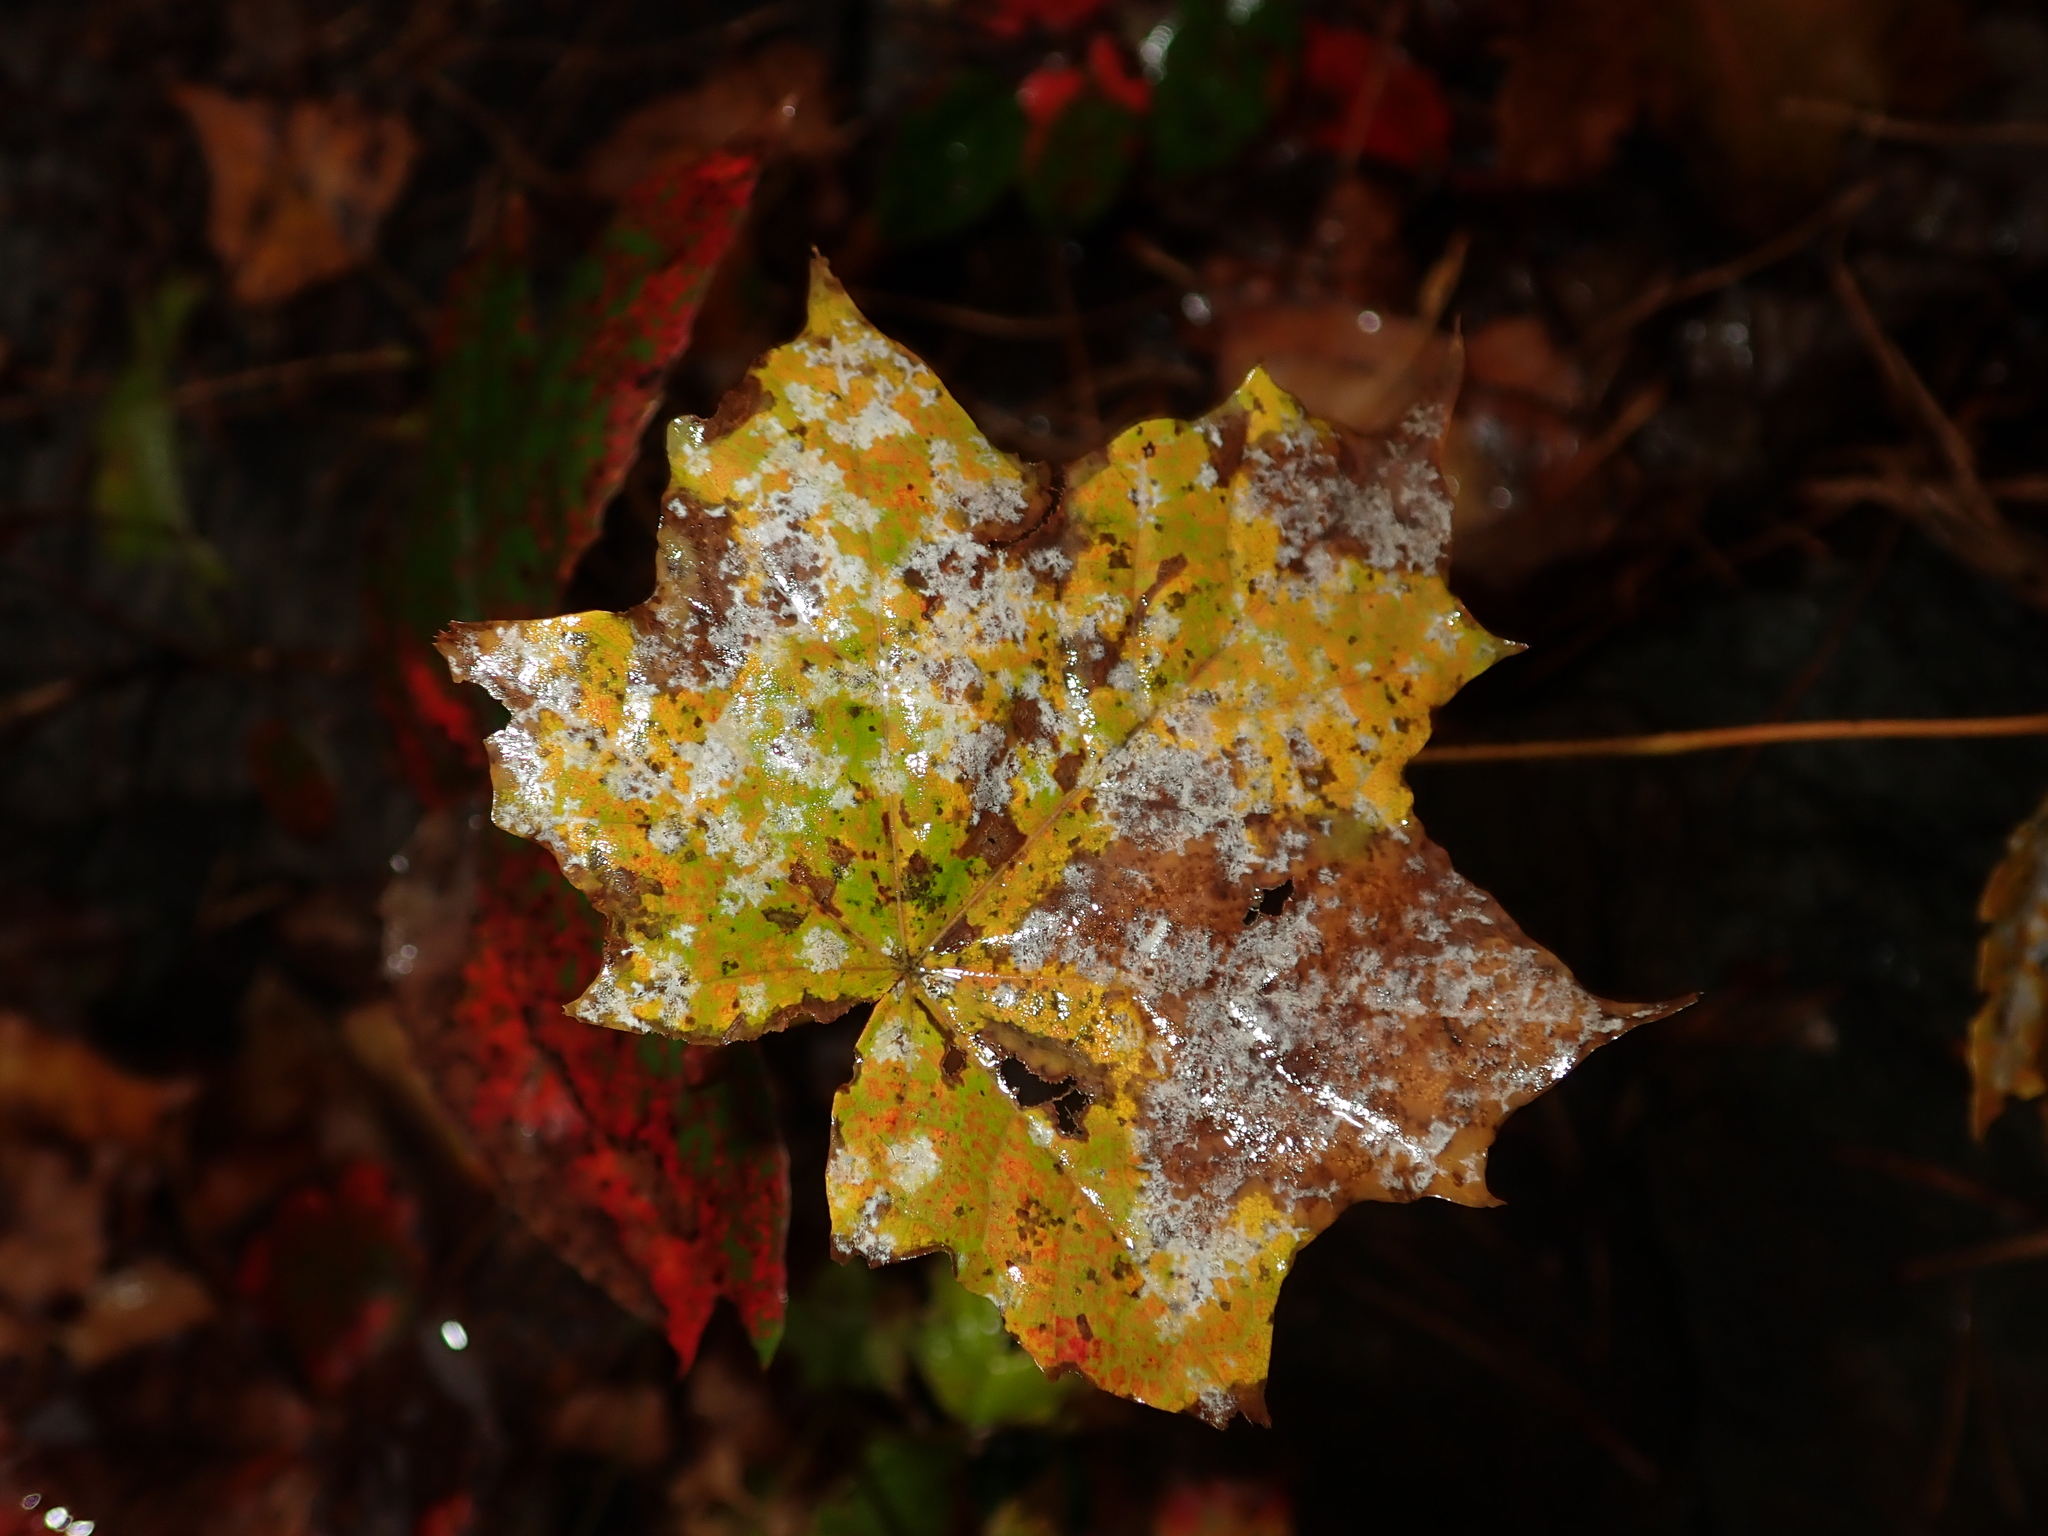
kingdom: Plantae
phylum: Tracheophyta
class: Magnoliopsida
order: Sapindales
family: Sapindaceae
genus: Acer
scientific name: Acer platanoides
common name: Norway maple
